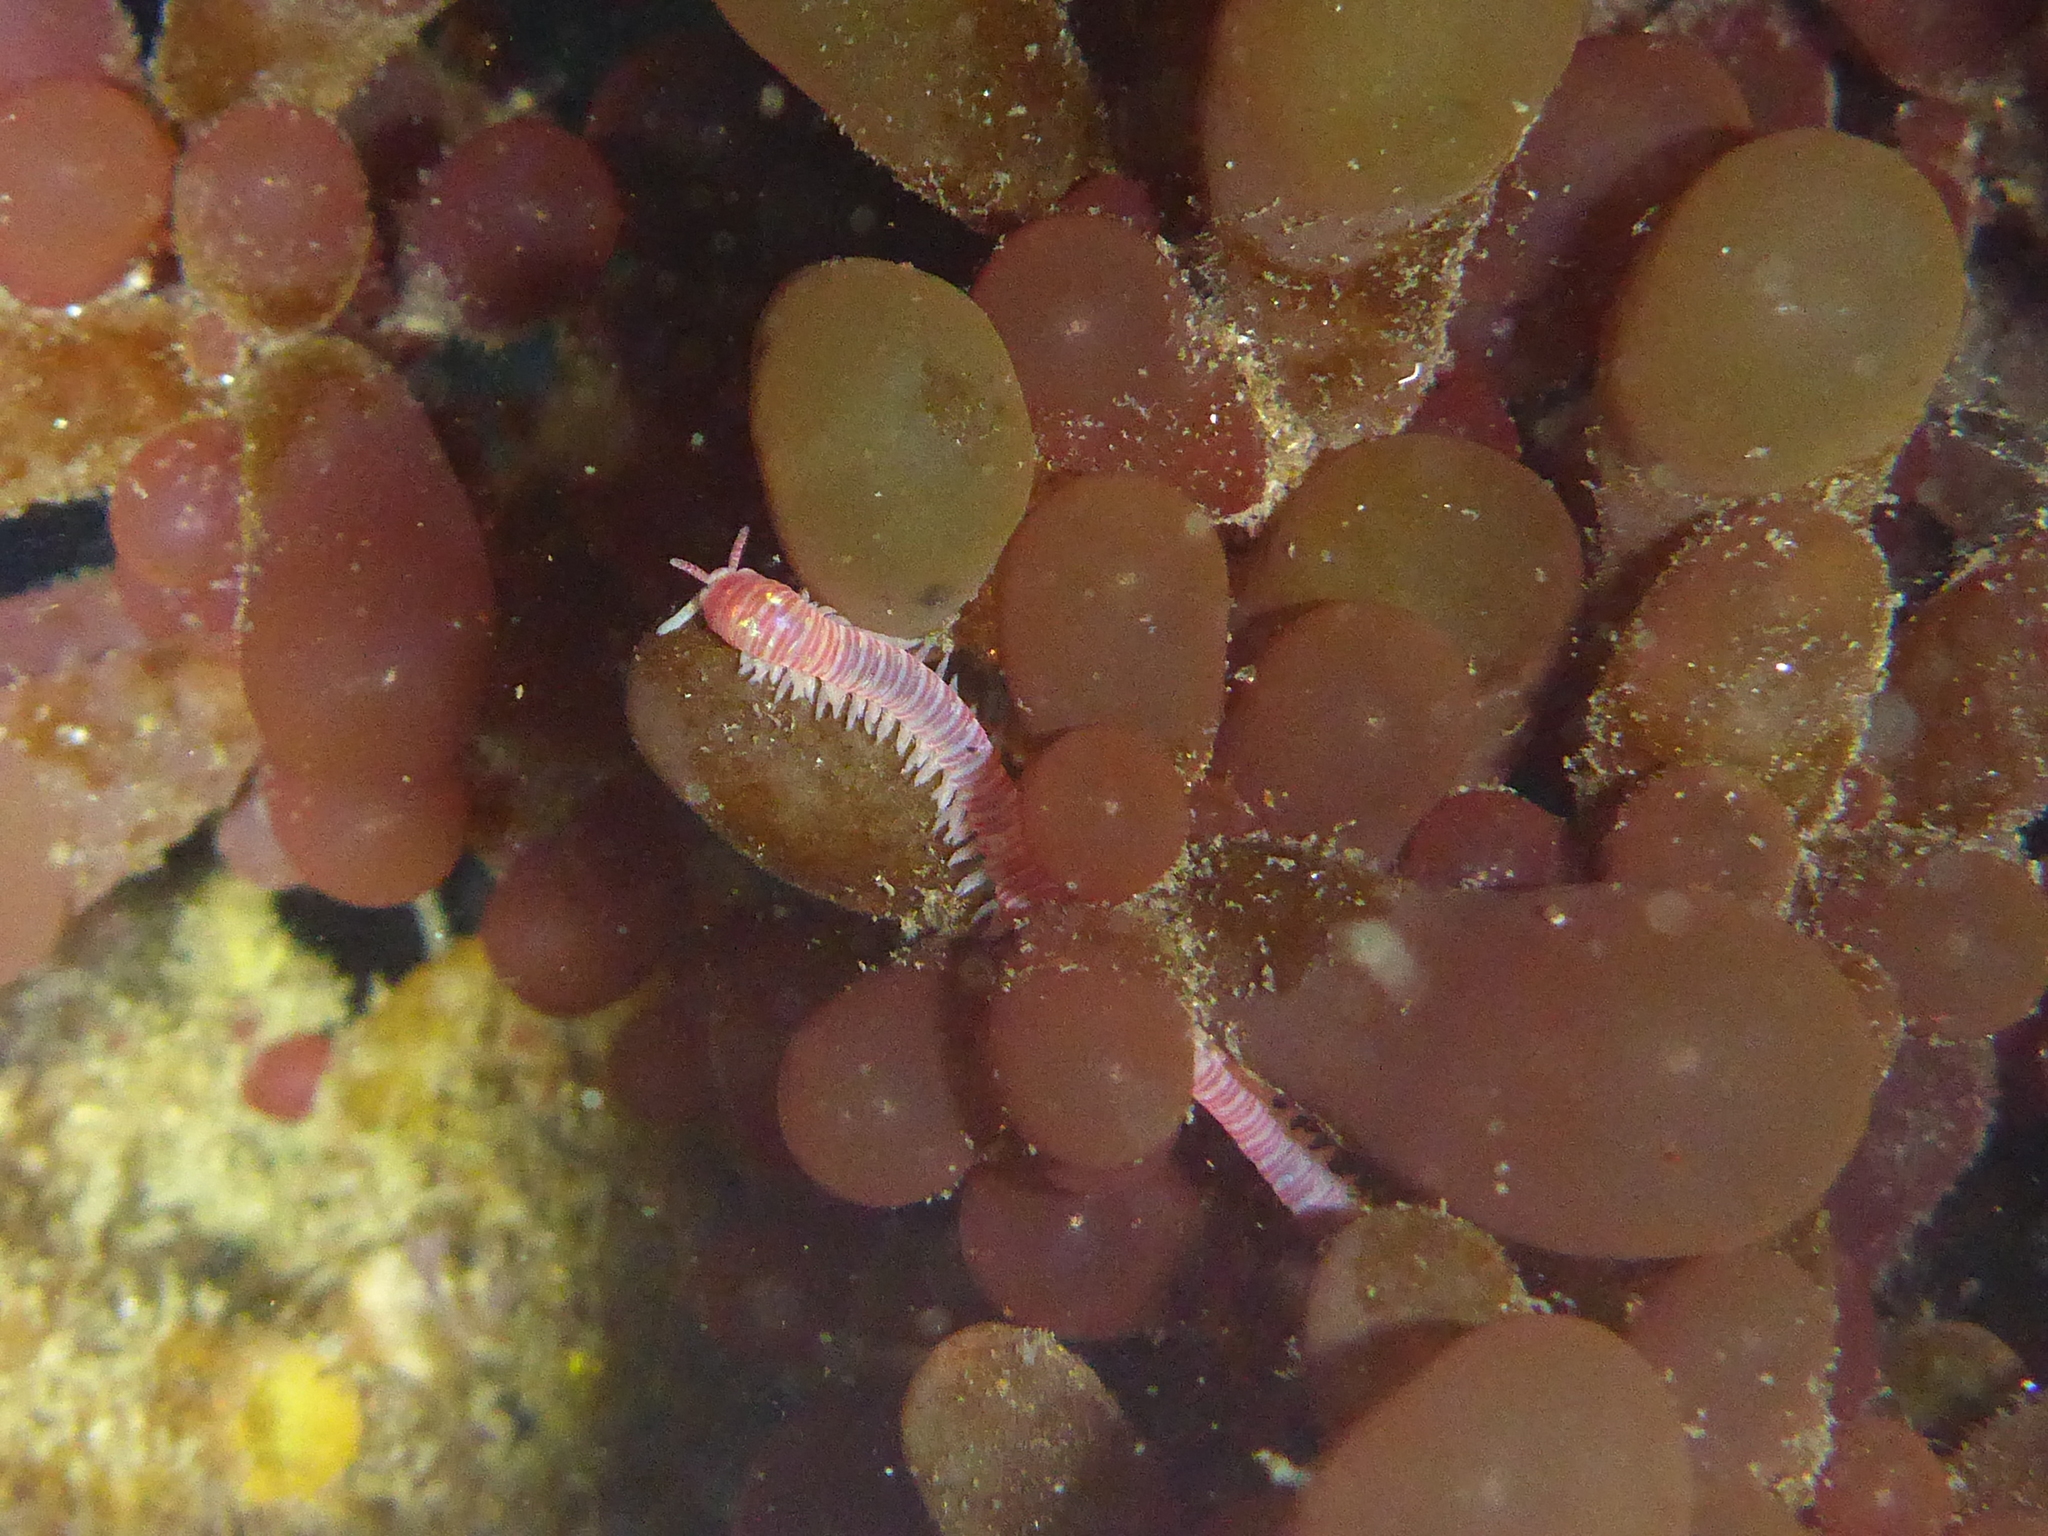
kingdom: Animalia
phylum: Annelida
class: Polychaeta
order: Eunicida
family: Dorvilleidae
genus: Dorvillea
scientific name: Dorvillea moniloceras
